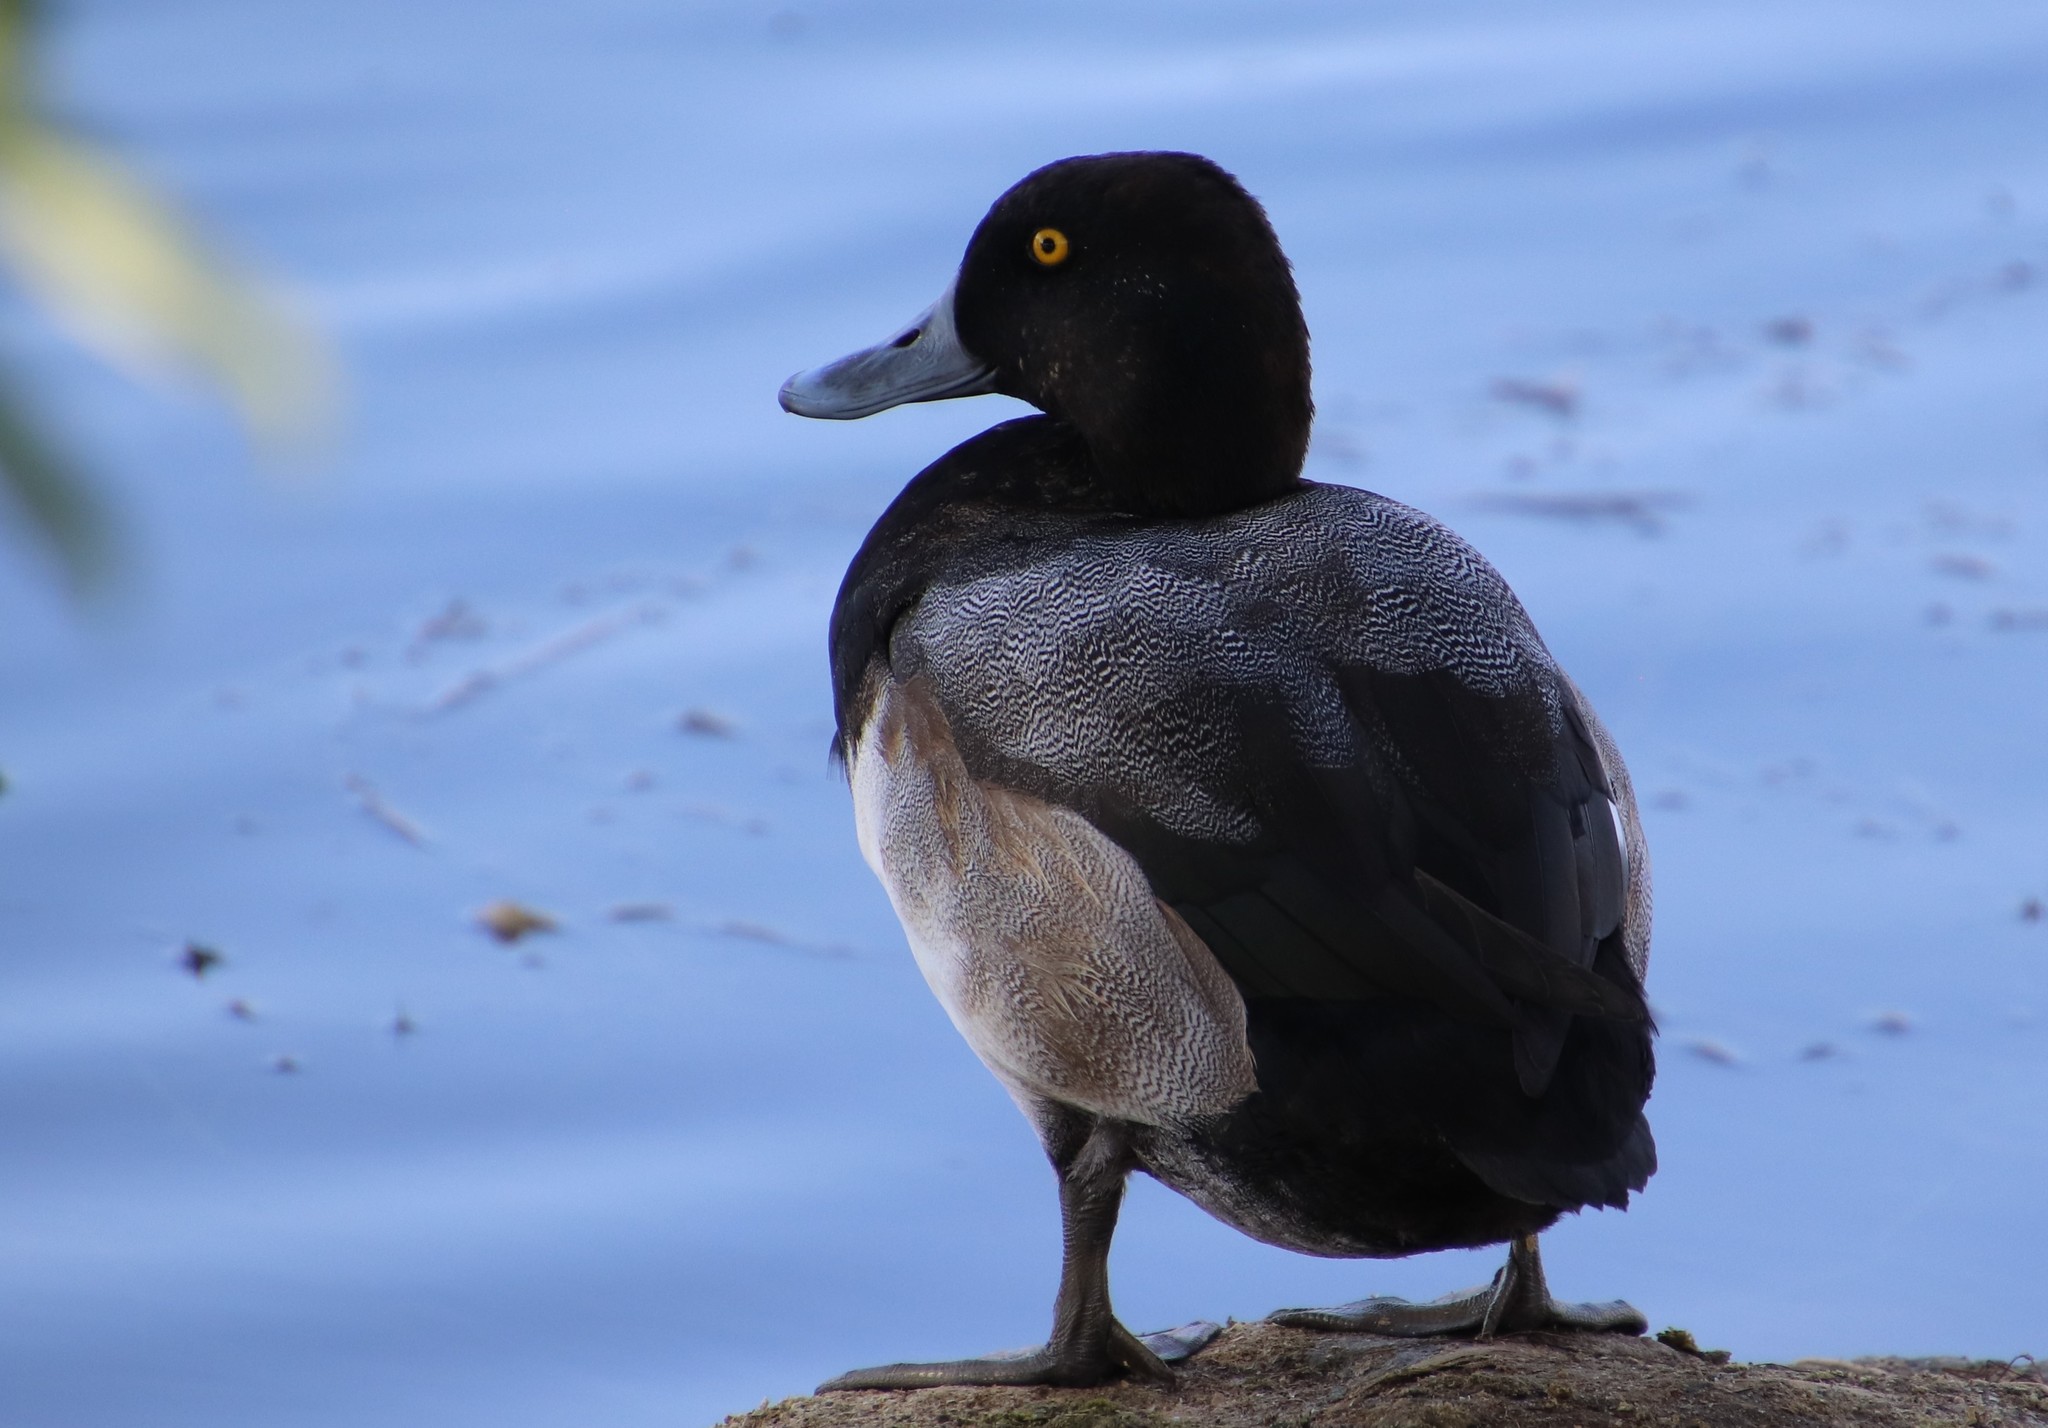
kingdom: Animalia
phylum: Chordata
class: Aves
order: Anseriformes
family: Anatidae
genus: Aythya
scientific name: Aythya marila
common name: Greater scaup
